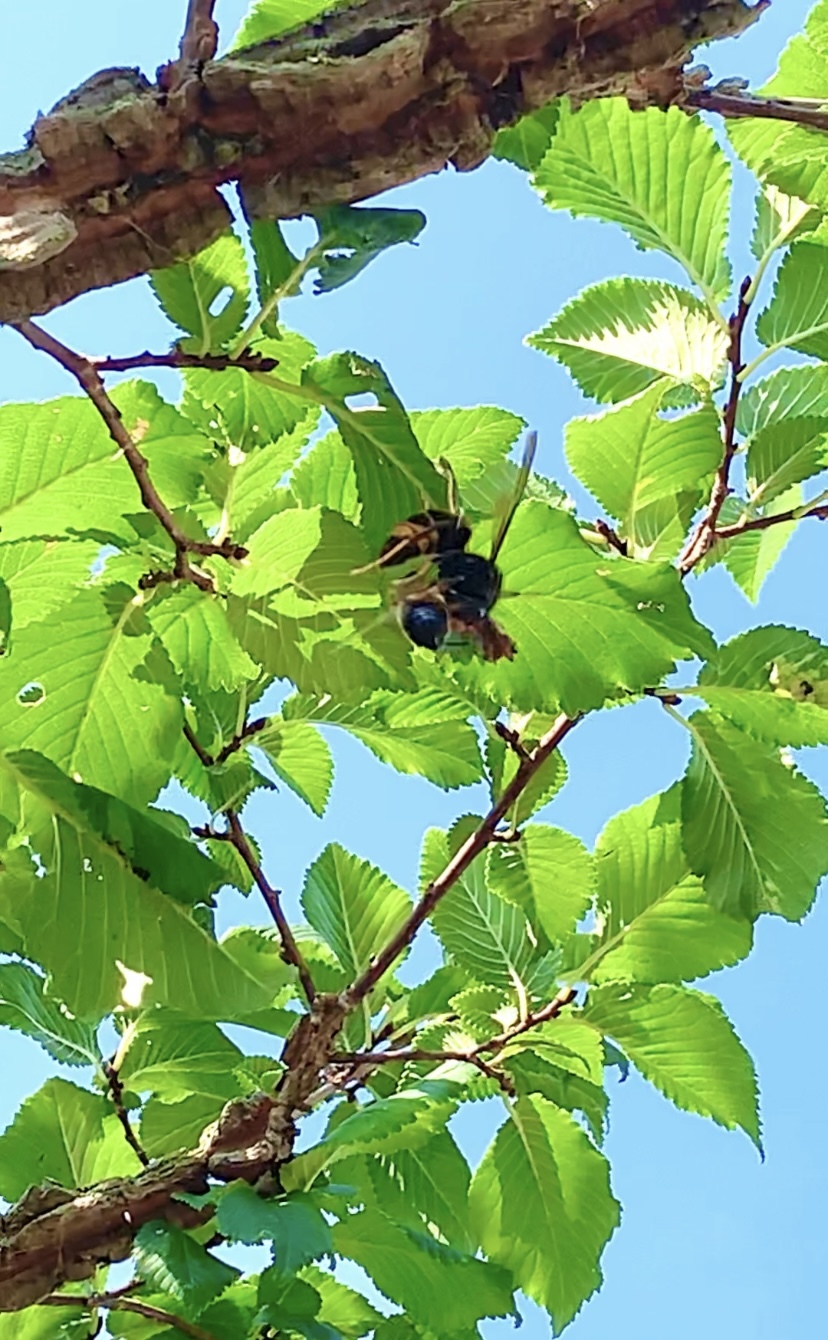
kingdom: Animalia
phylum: Arthropoda
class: Insecta
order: Hymenoptera
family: Vespidae
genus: Vespa
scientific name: Vespa velutina
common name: Asian hornet
